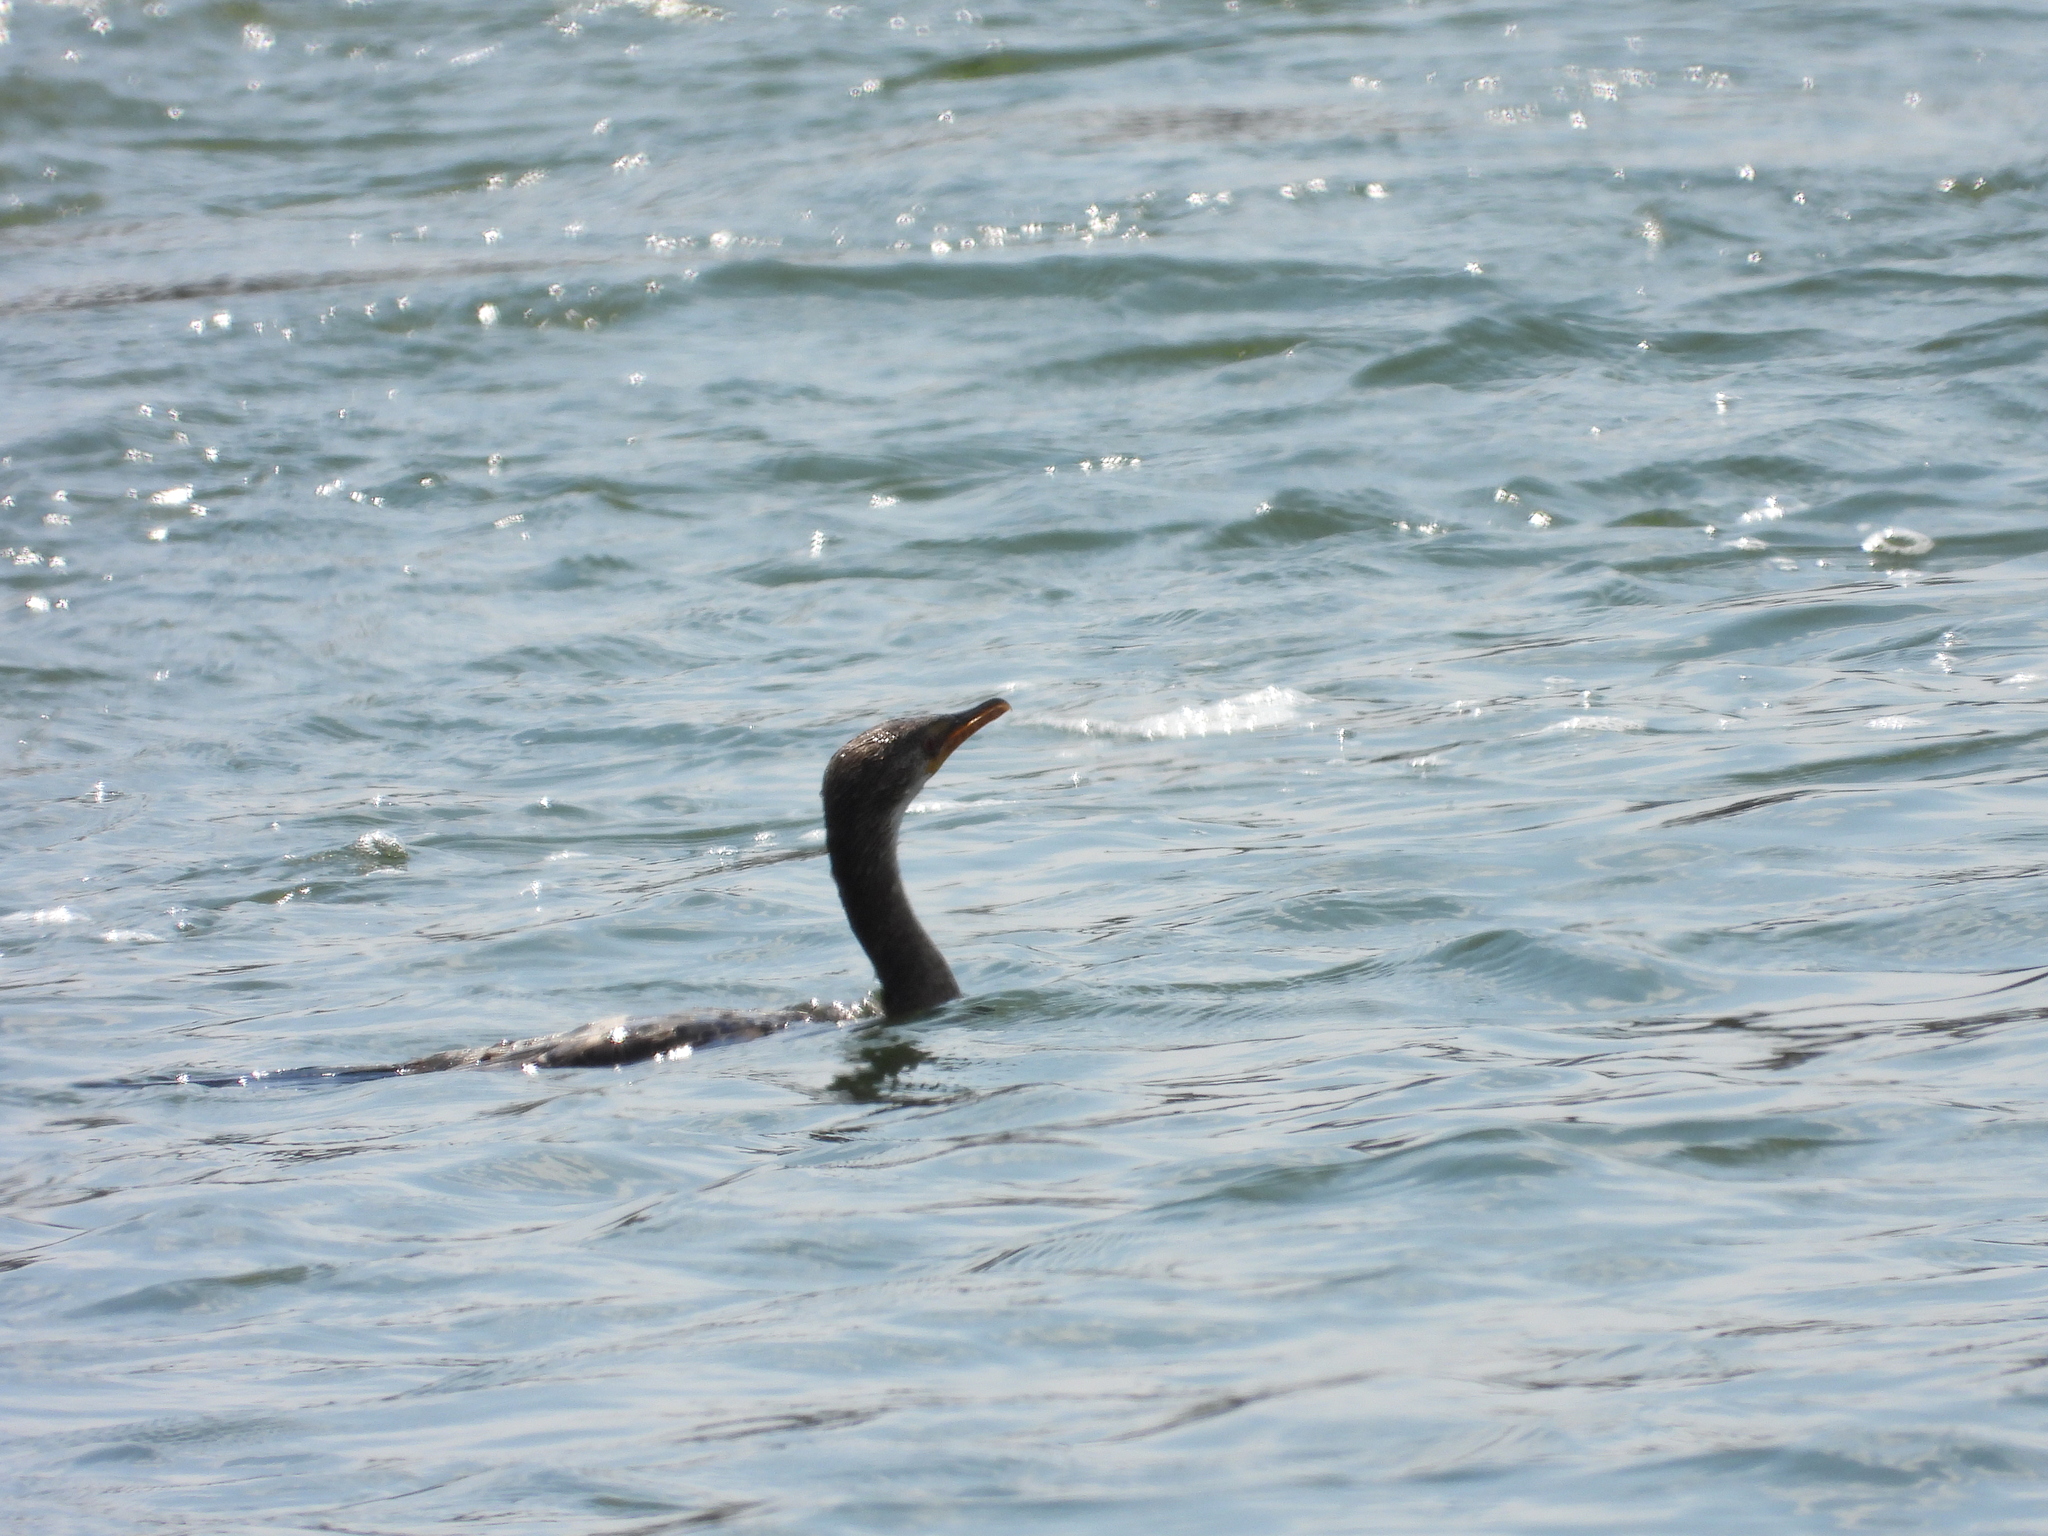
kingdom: Animalia
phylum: Chordata
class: Aves
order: Suliformes
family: Phalacrocoracidae
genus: Microcarbo
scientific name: Microcarbo africanus
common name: Long-tailed cormorant
